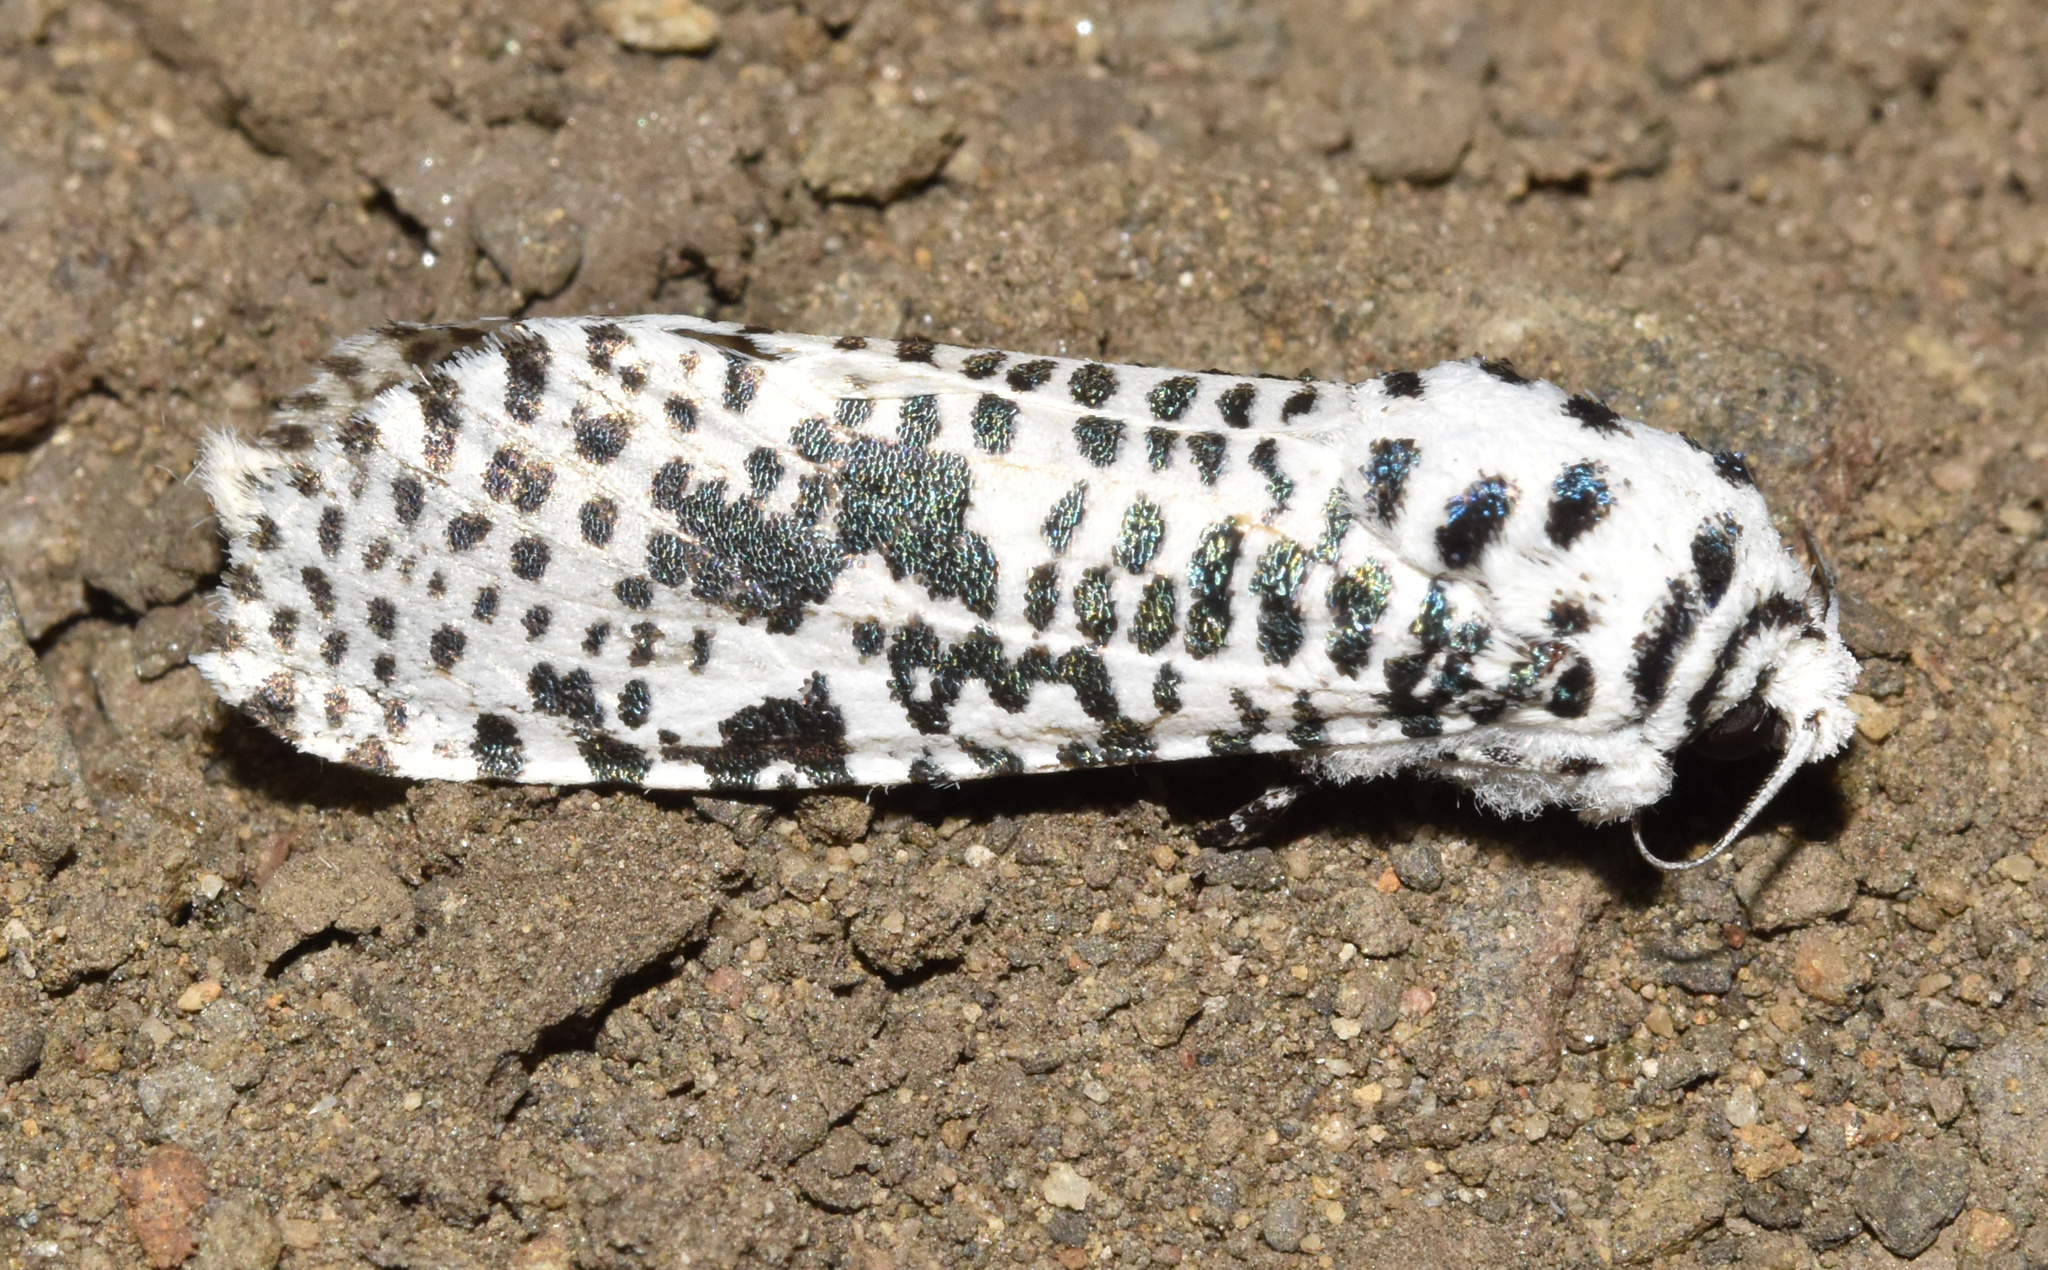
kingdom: Animalia
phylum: Arthropoda
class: Insecta
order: Lepidoptera
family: Cossidae
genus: Azygophleps
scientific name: Azygophleps leopardina
